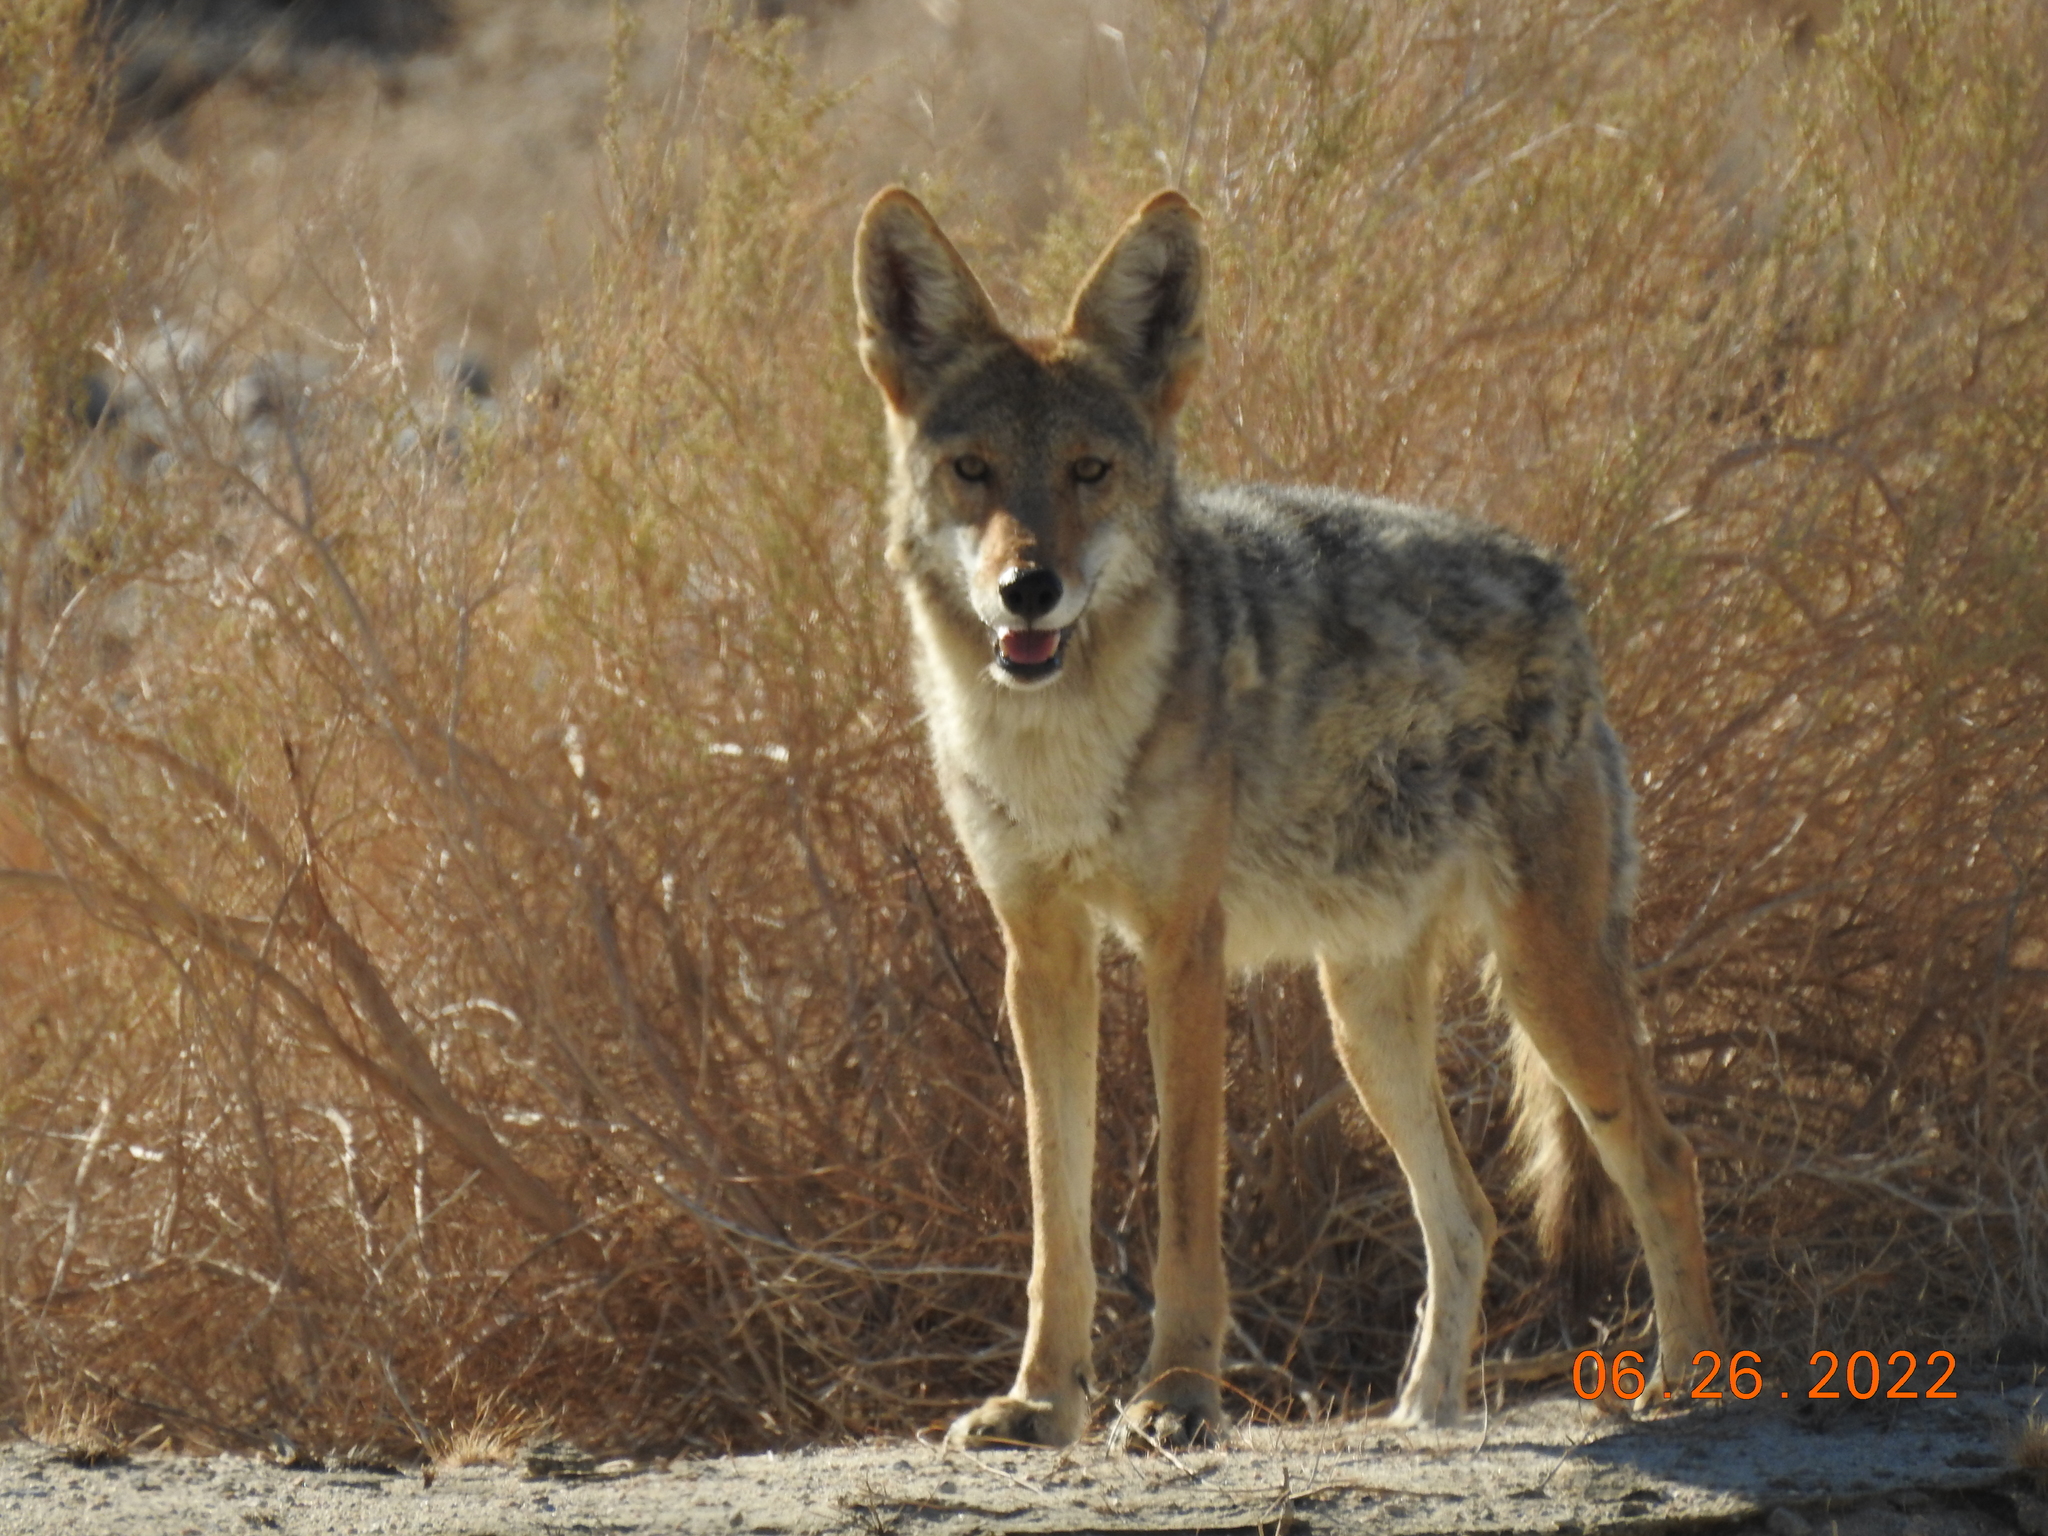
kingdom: Animalia
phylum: Chordata
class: Mammalia
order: Carnivora
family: Canidae
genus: Canis
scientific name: Canis latrans
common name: Coyote
